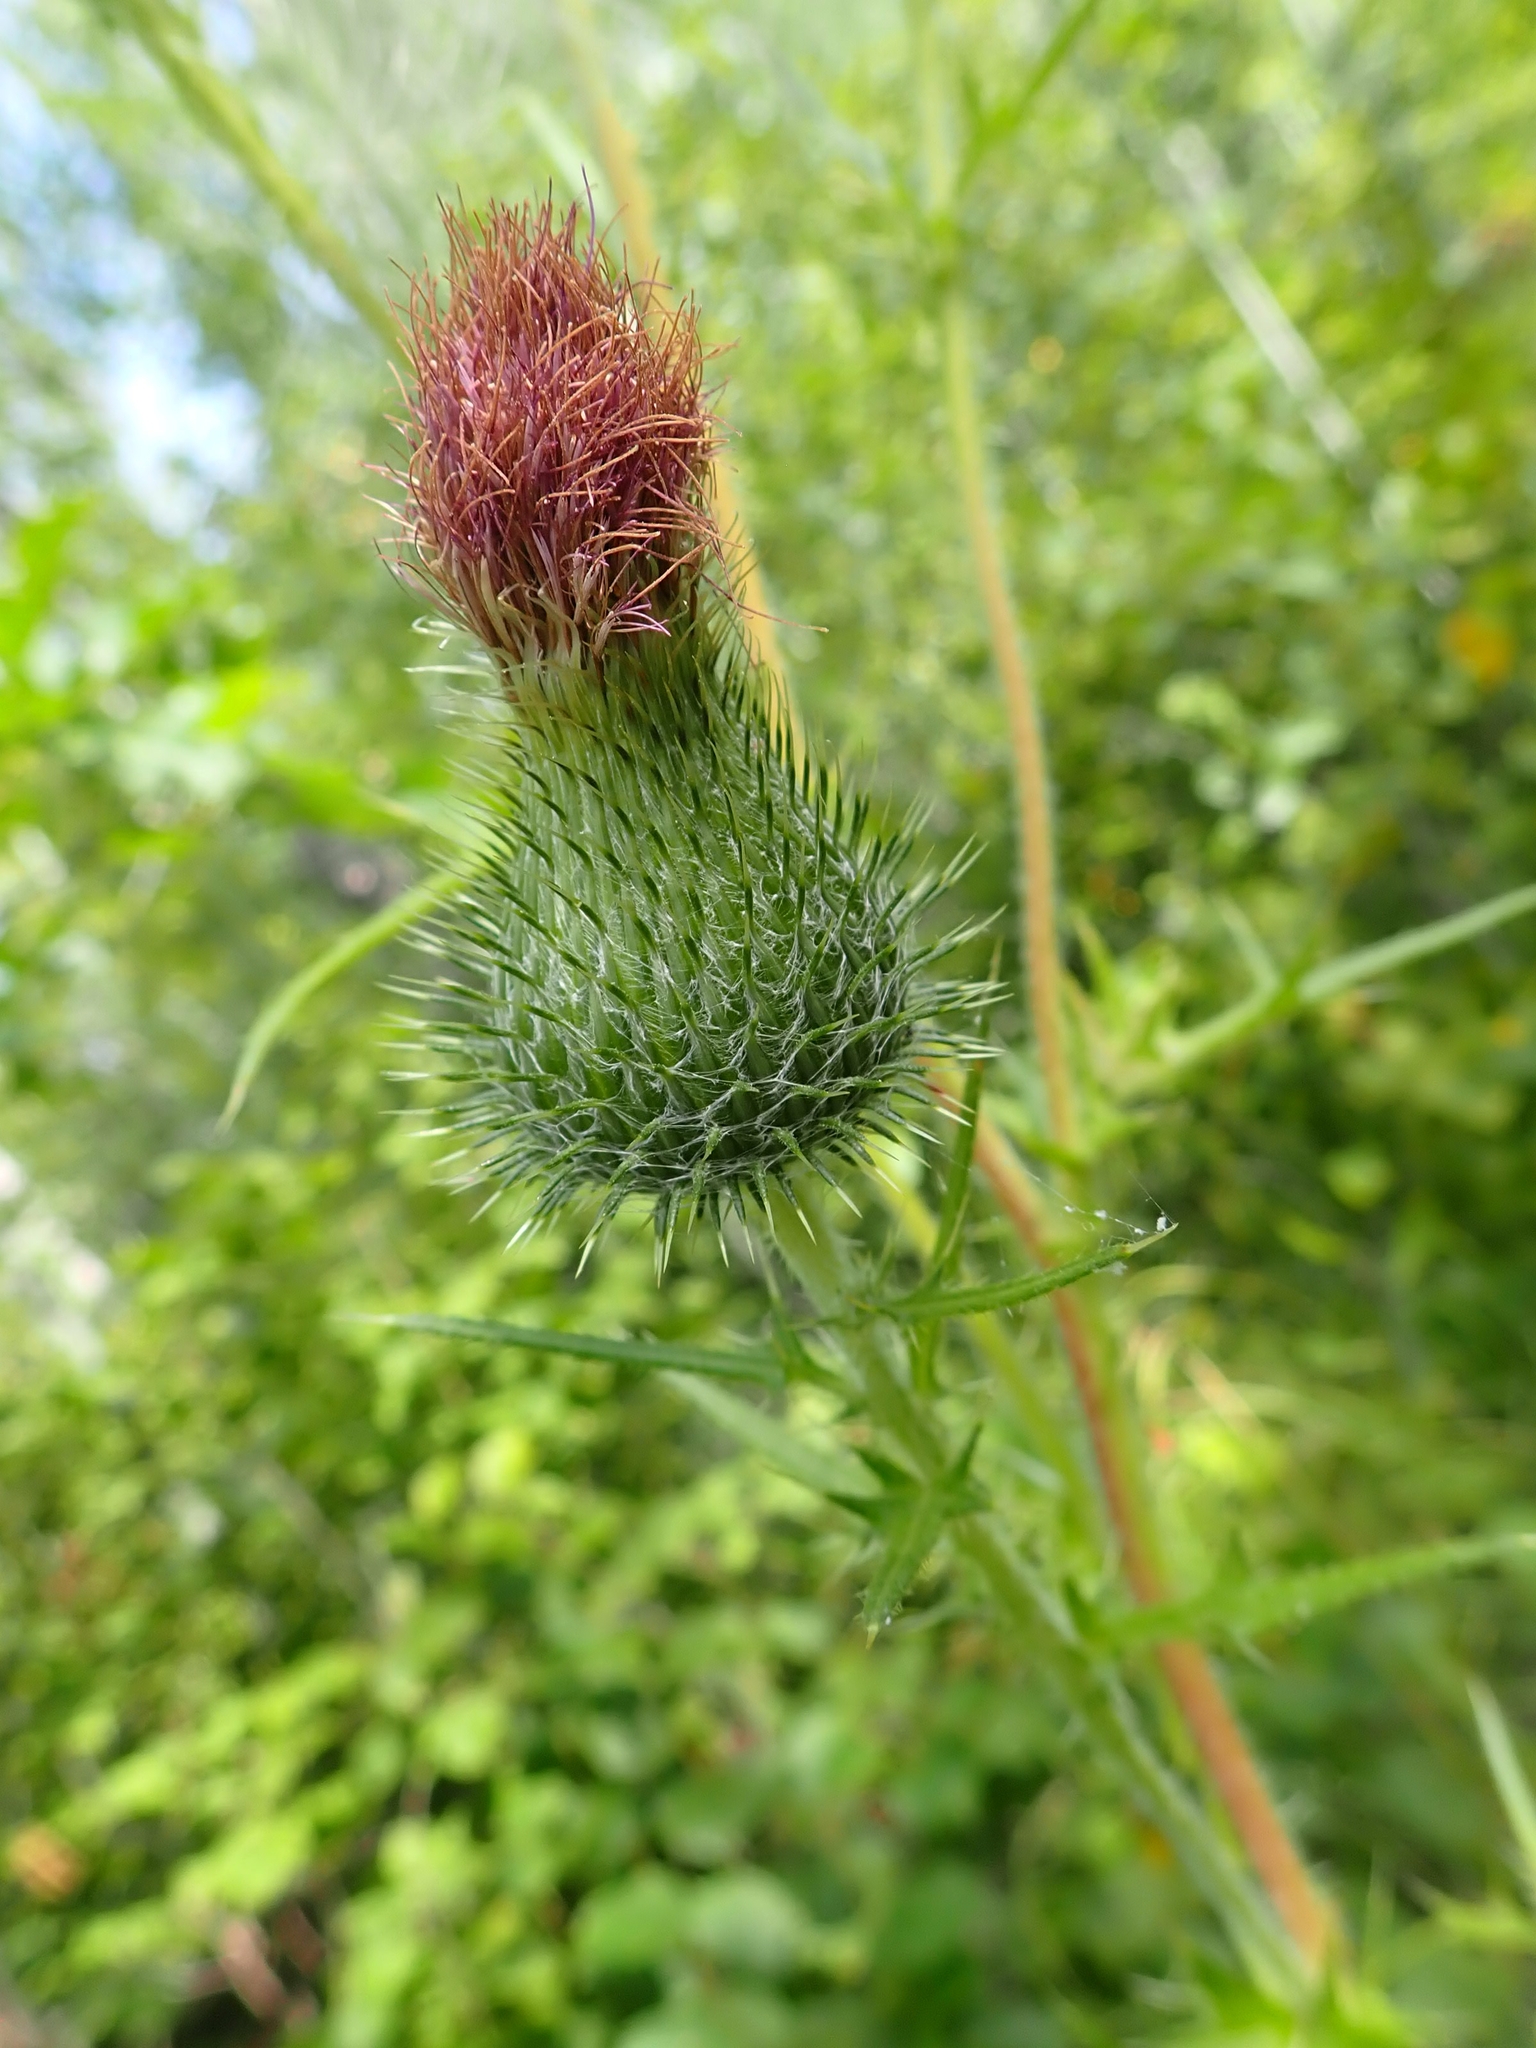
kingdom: Plantae
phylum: Tracheophyta
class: Magnoliopsida
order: Asterales
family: Asteraceae
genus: Cirsium
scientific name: Cirsium vulgare
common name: Bull thistle
